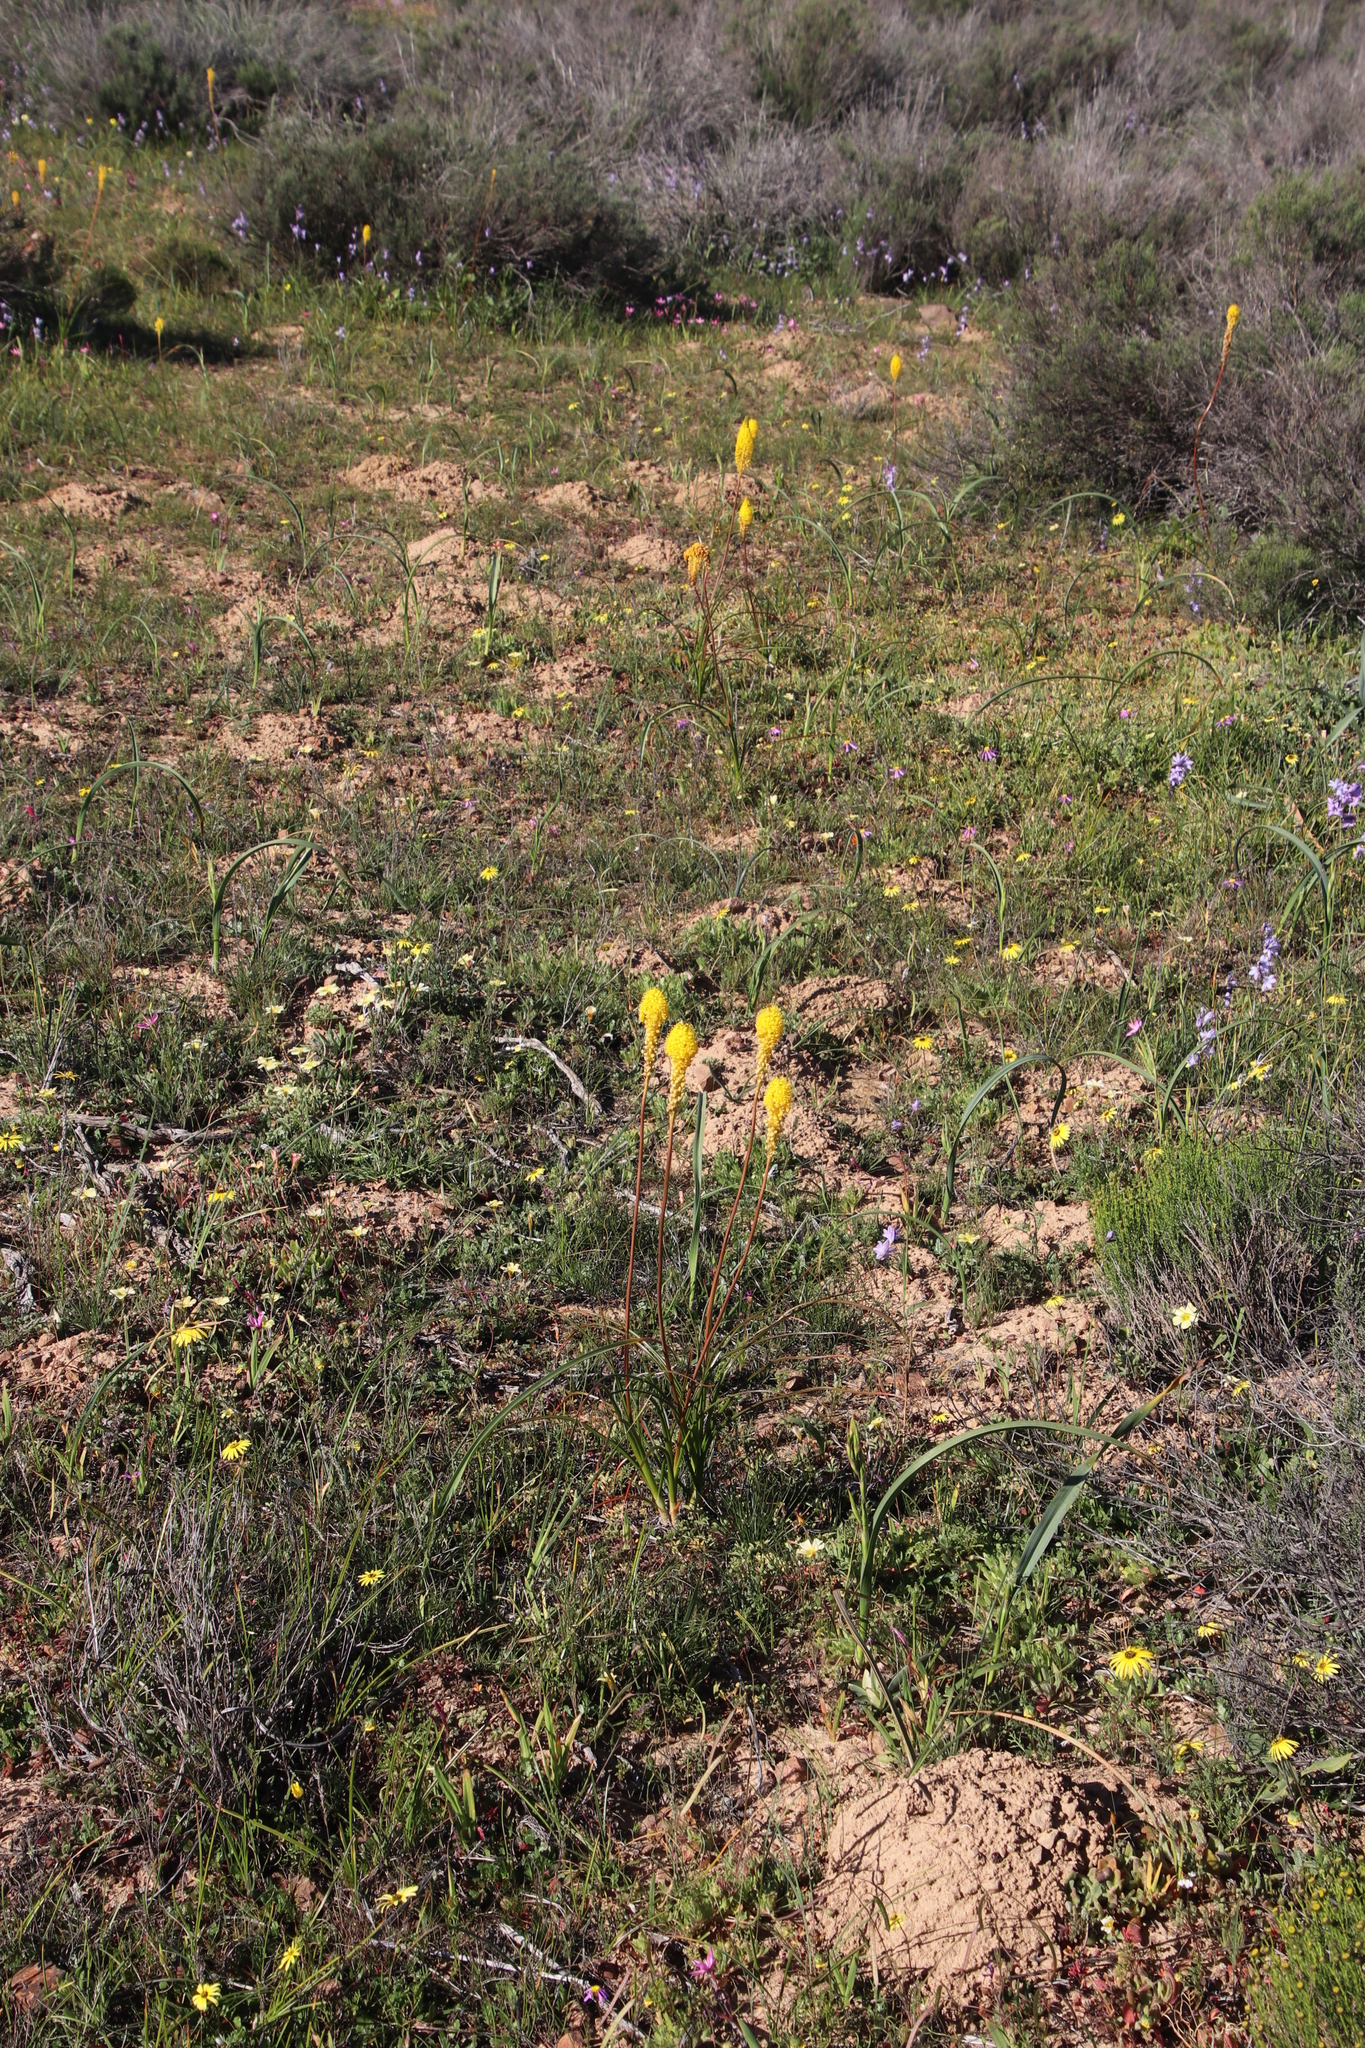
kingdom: Plantae
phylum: Tracheophyta
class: Liliopsida
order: Asparagales
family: Asphodelaceae
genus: Bulbinella
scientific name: Bulbinella nutans
